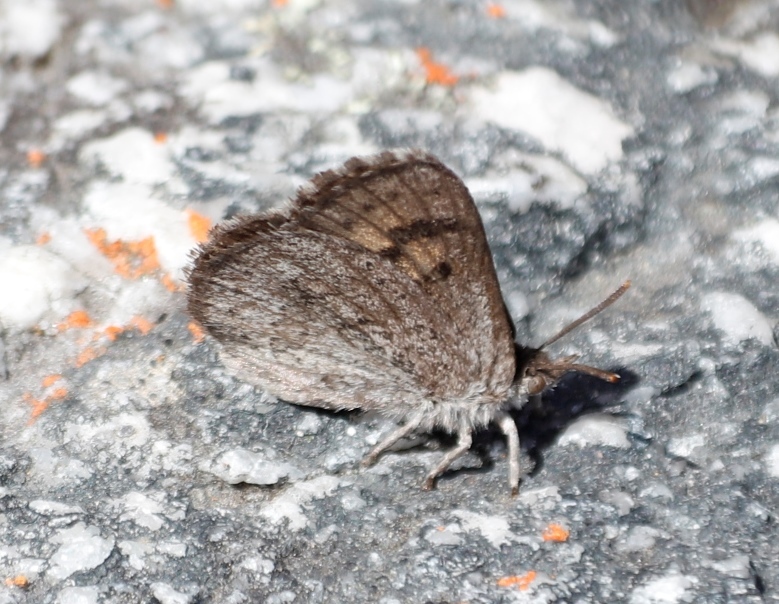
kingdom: Animalia
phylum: Arthropoda
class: Insecta
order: Lepidoptera
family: Lycaenidae
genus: Thestor
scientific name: Thestor montanus
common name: Mountain skolly
